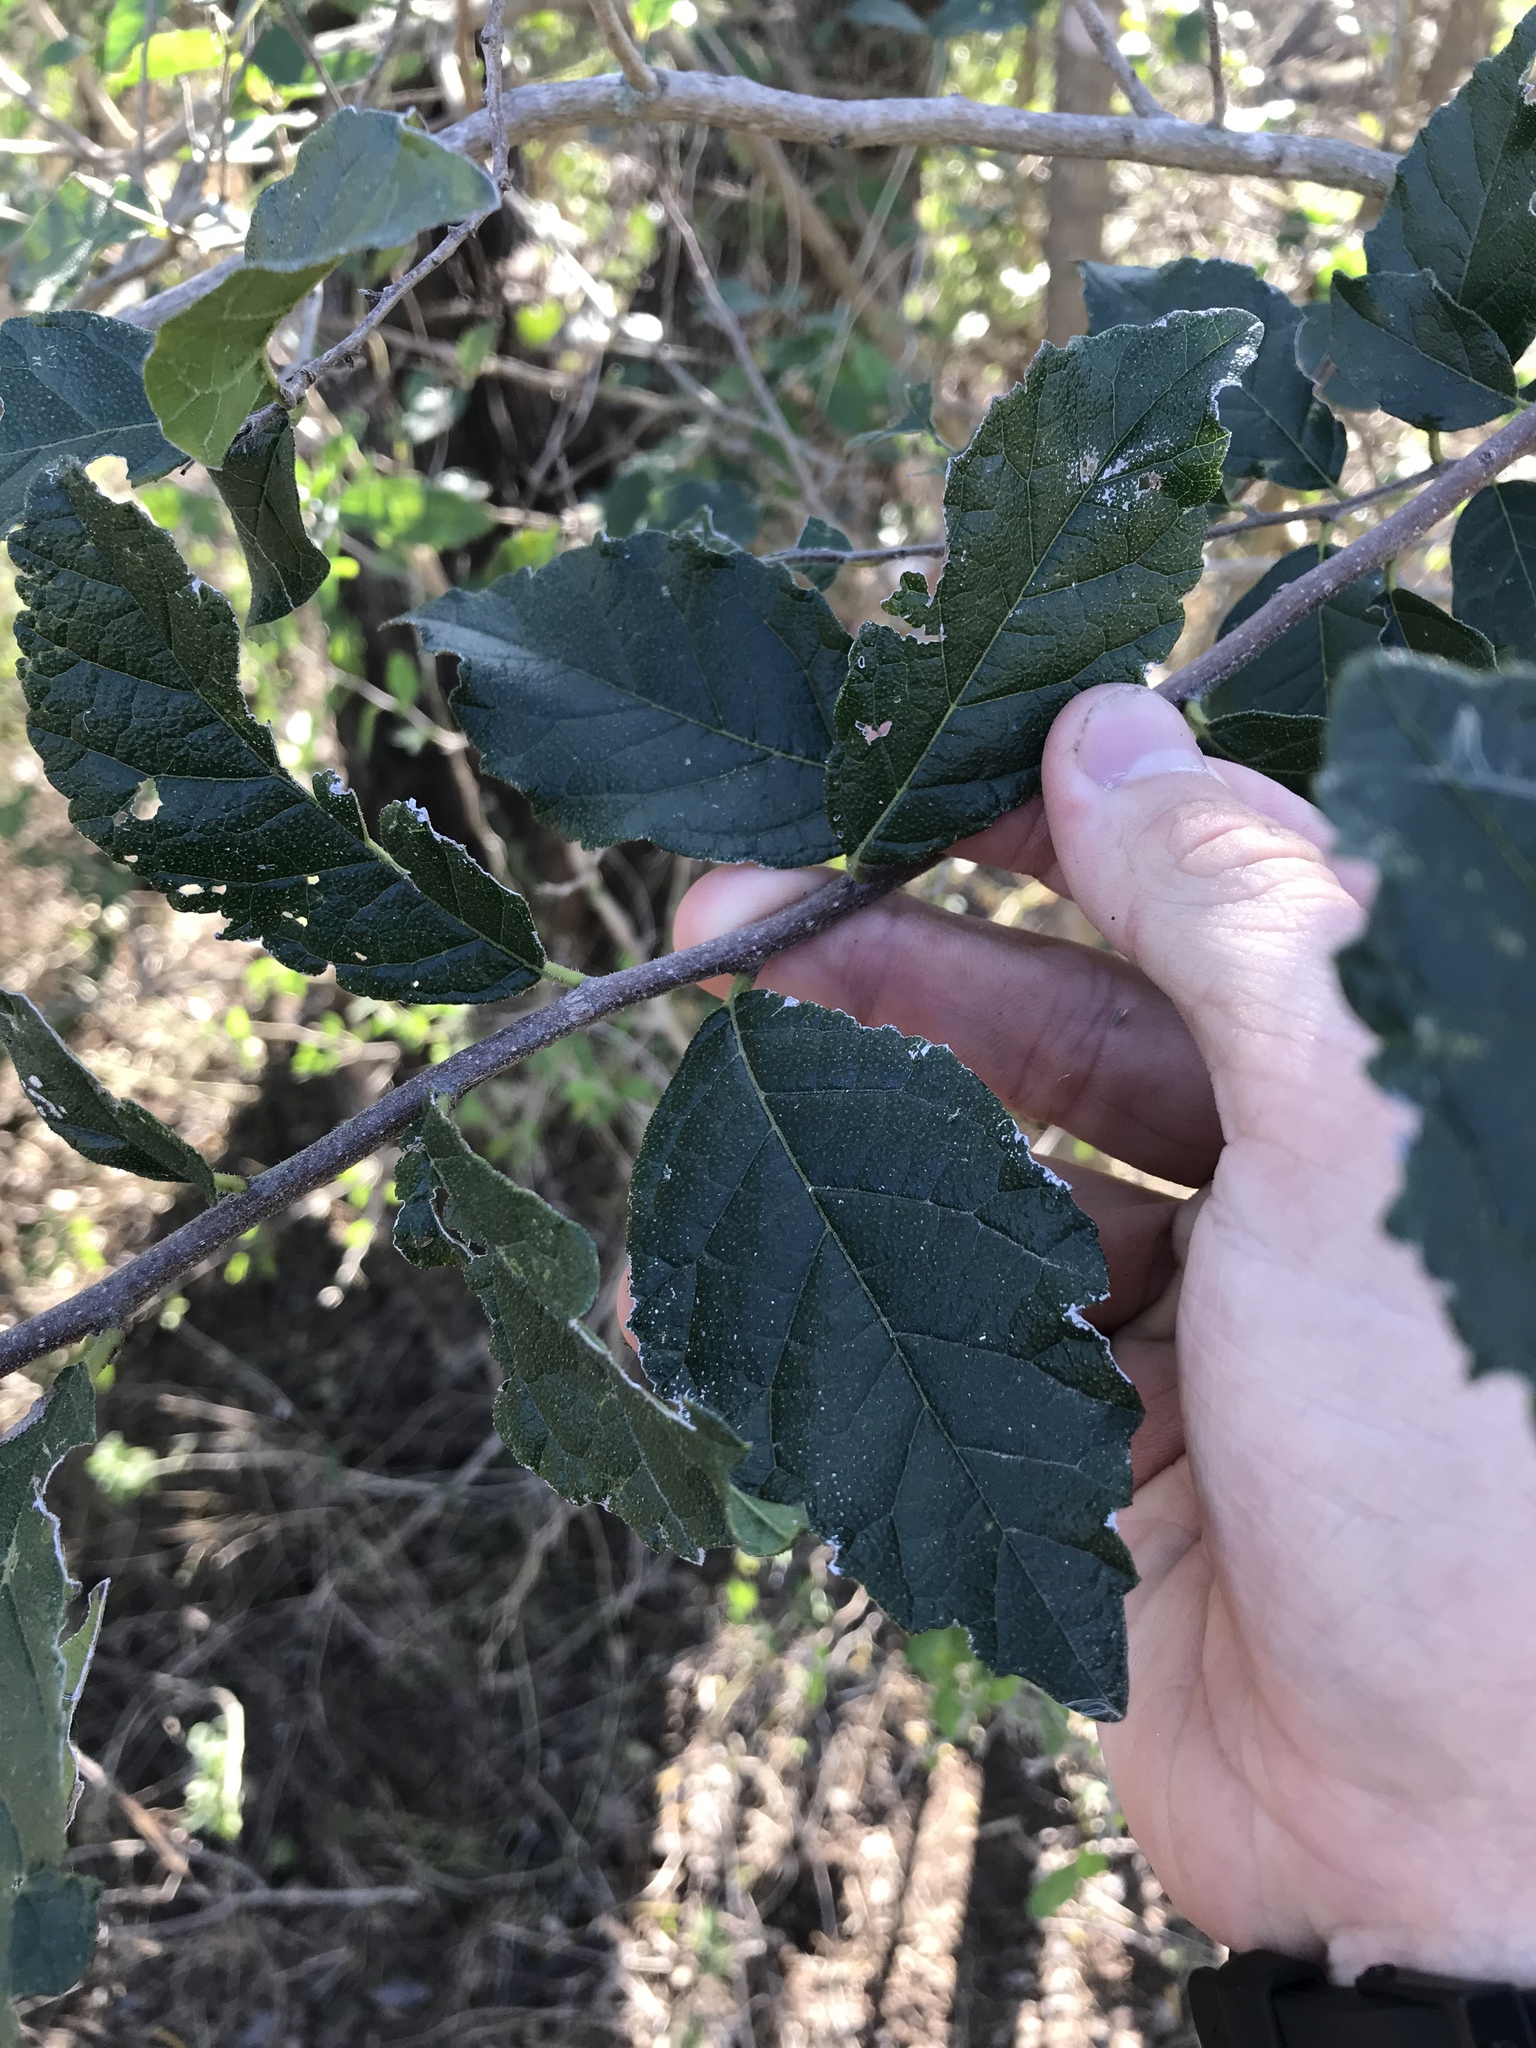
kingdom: Plantae
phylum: Tracheophyta
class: Magnoliopsida
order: Boraginales
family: Ehretiaceae
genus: Ehretia
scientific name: Ehretia anacua
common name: Sugarberry
